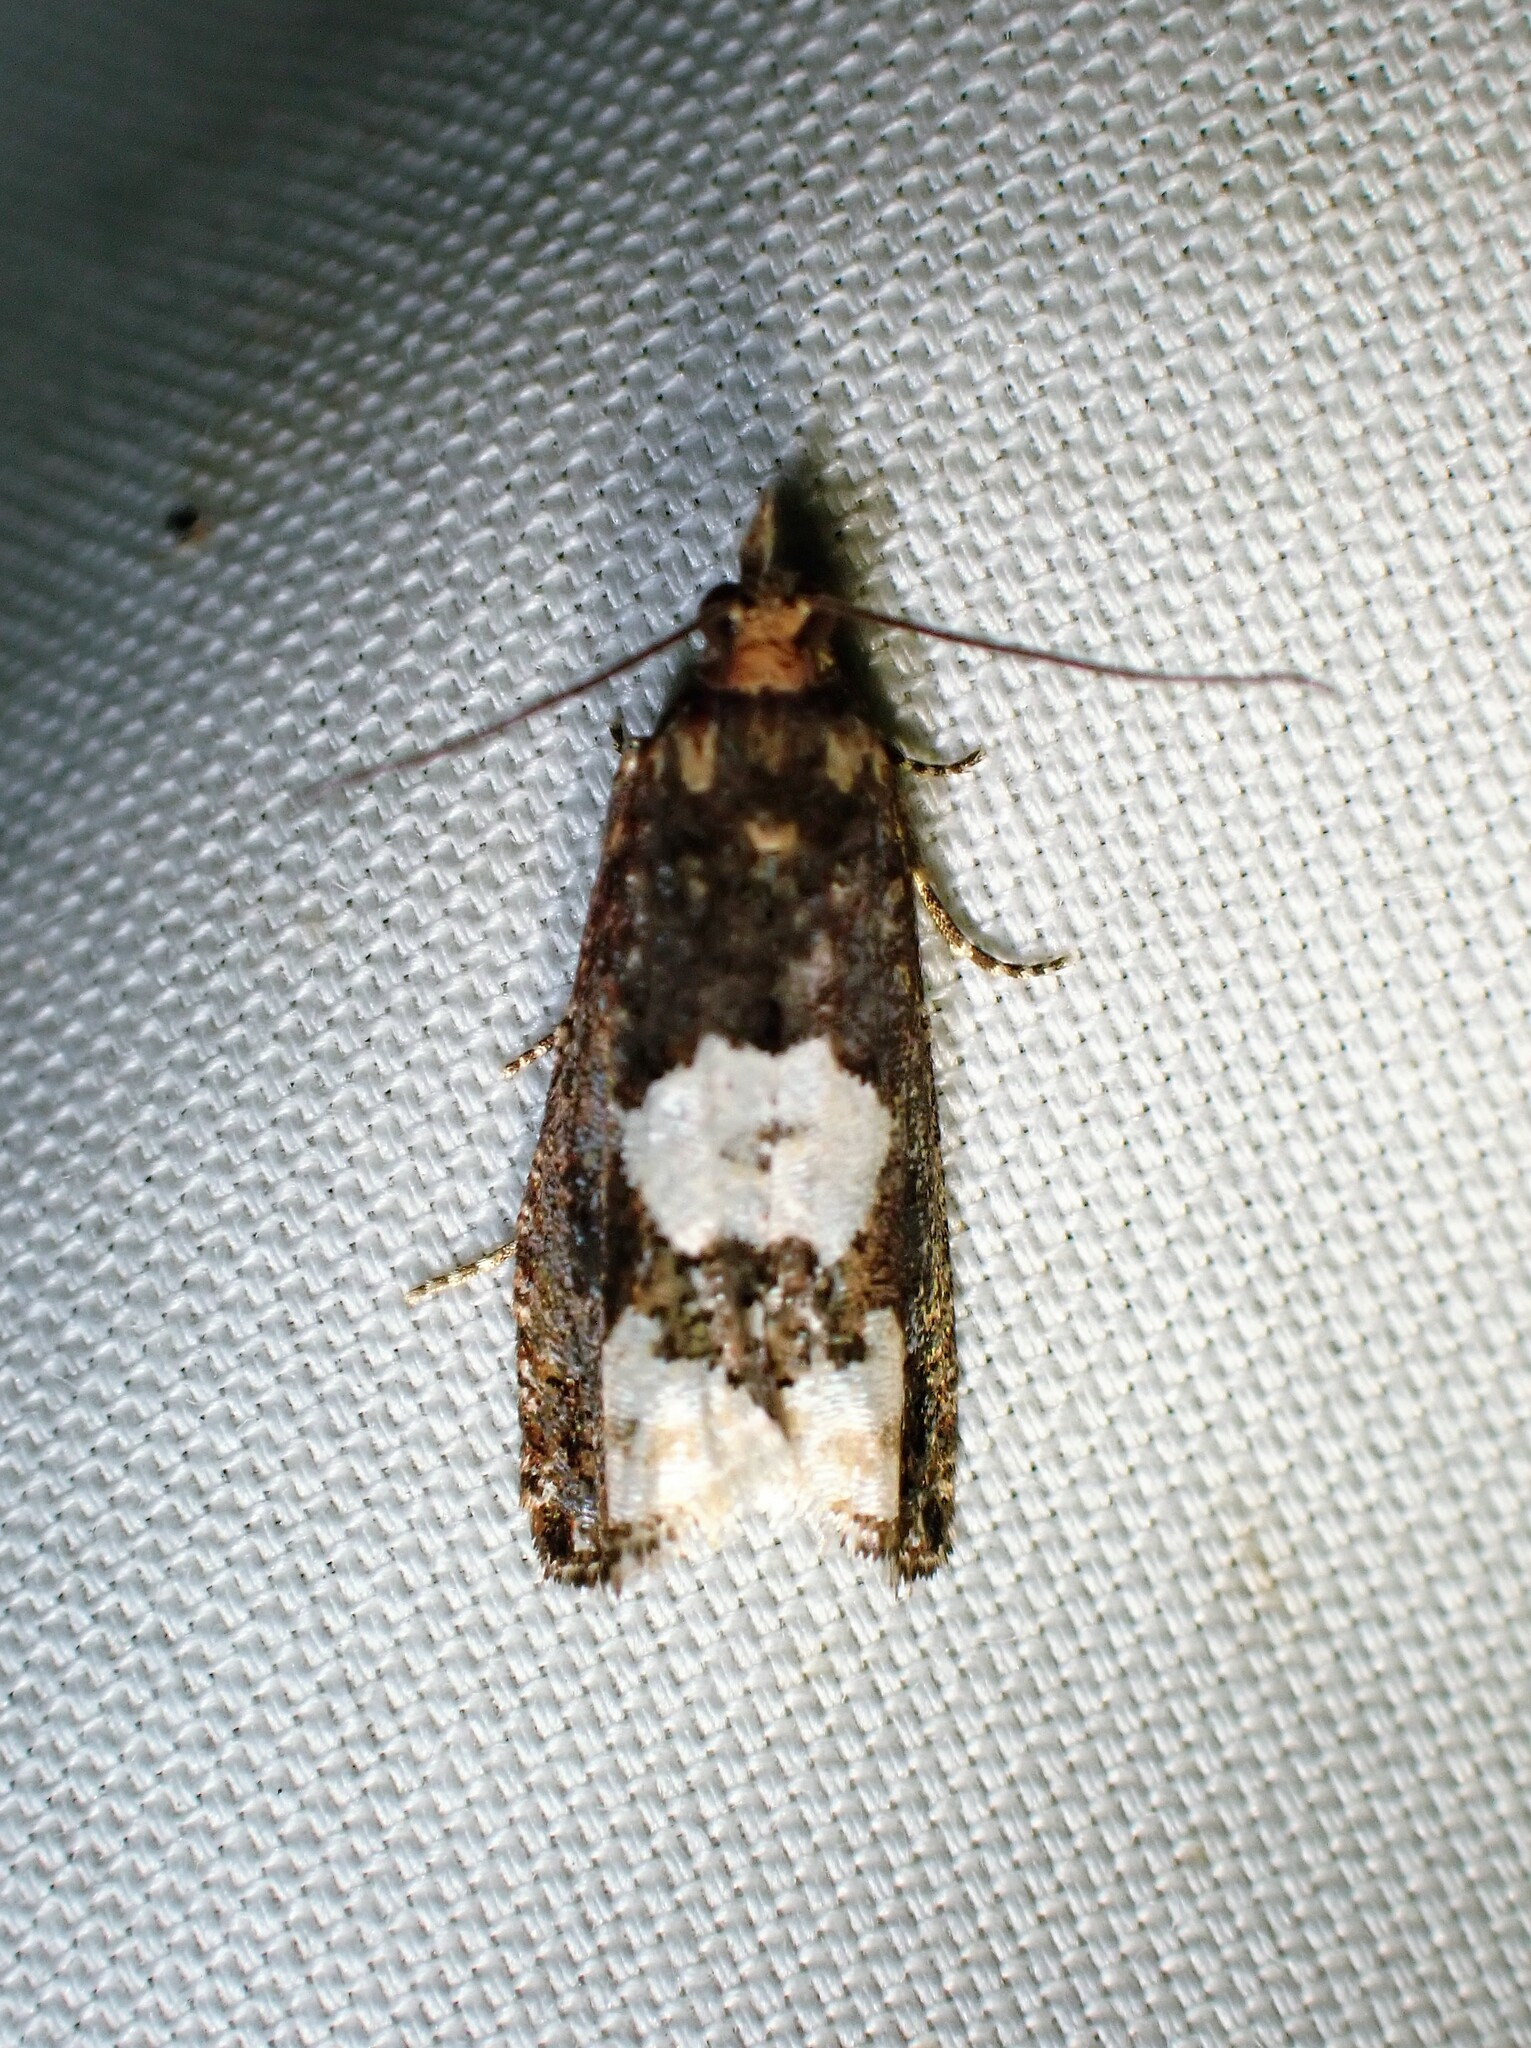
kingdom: Animalia
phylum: Arthropoda
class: Insecta
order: Lepidoptera
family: Tortricidae
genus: Epinotia
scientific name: Epinotia trigonella
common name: White-blotch bell
